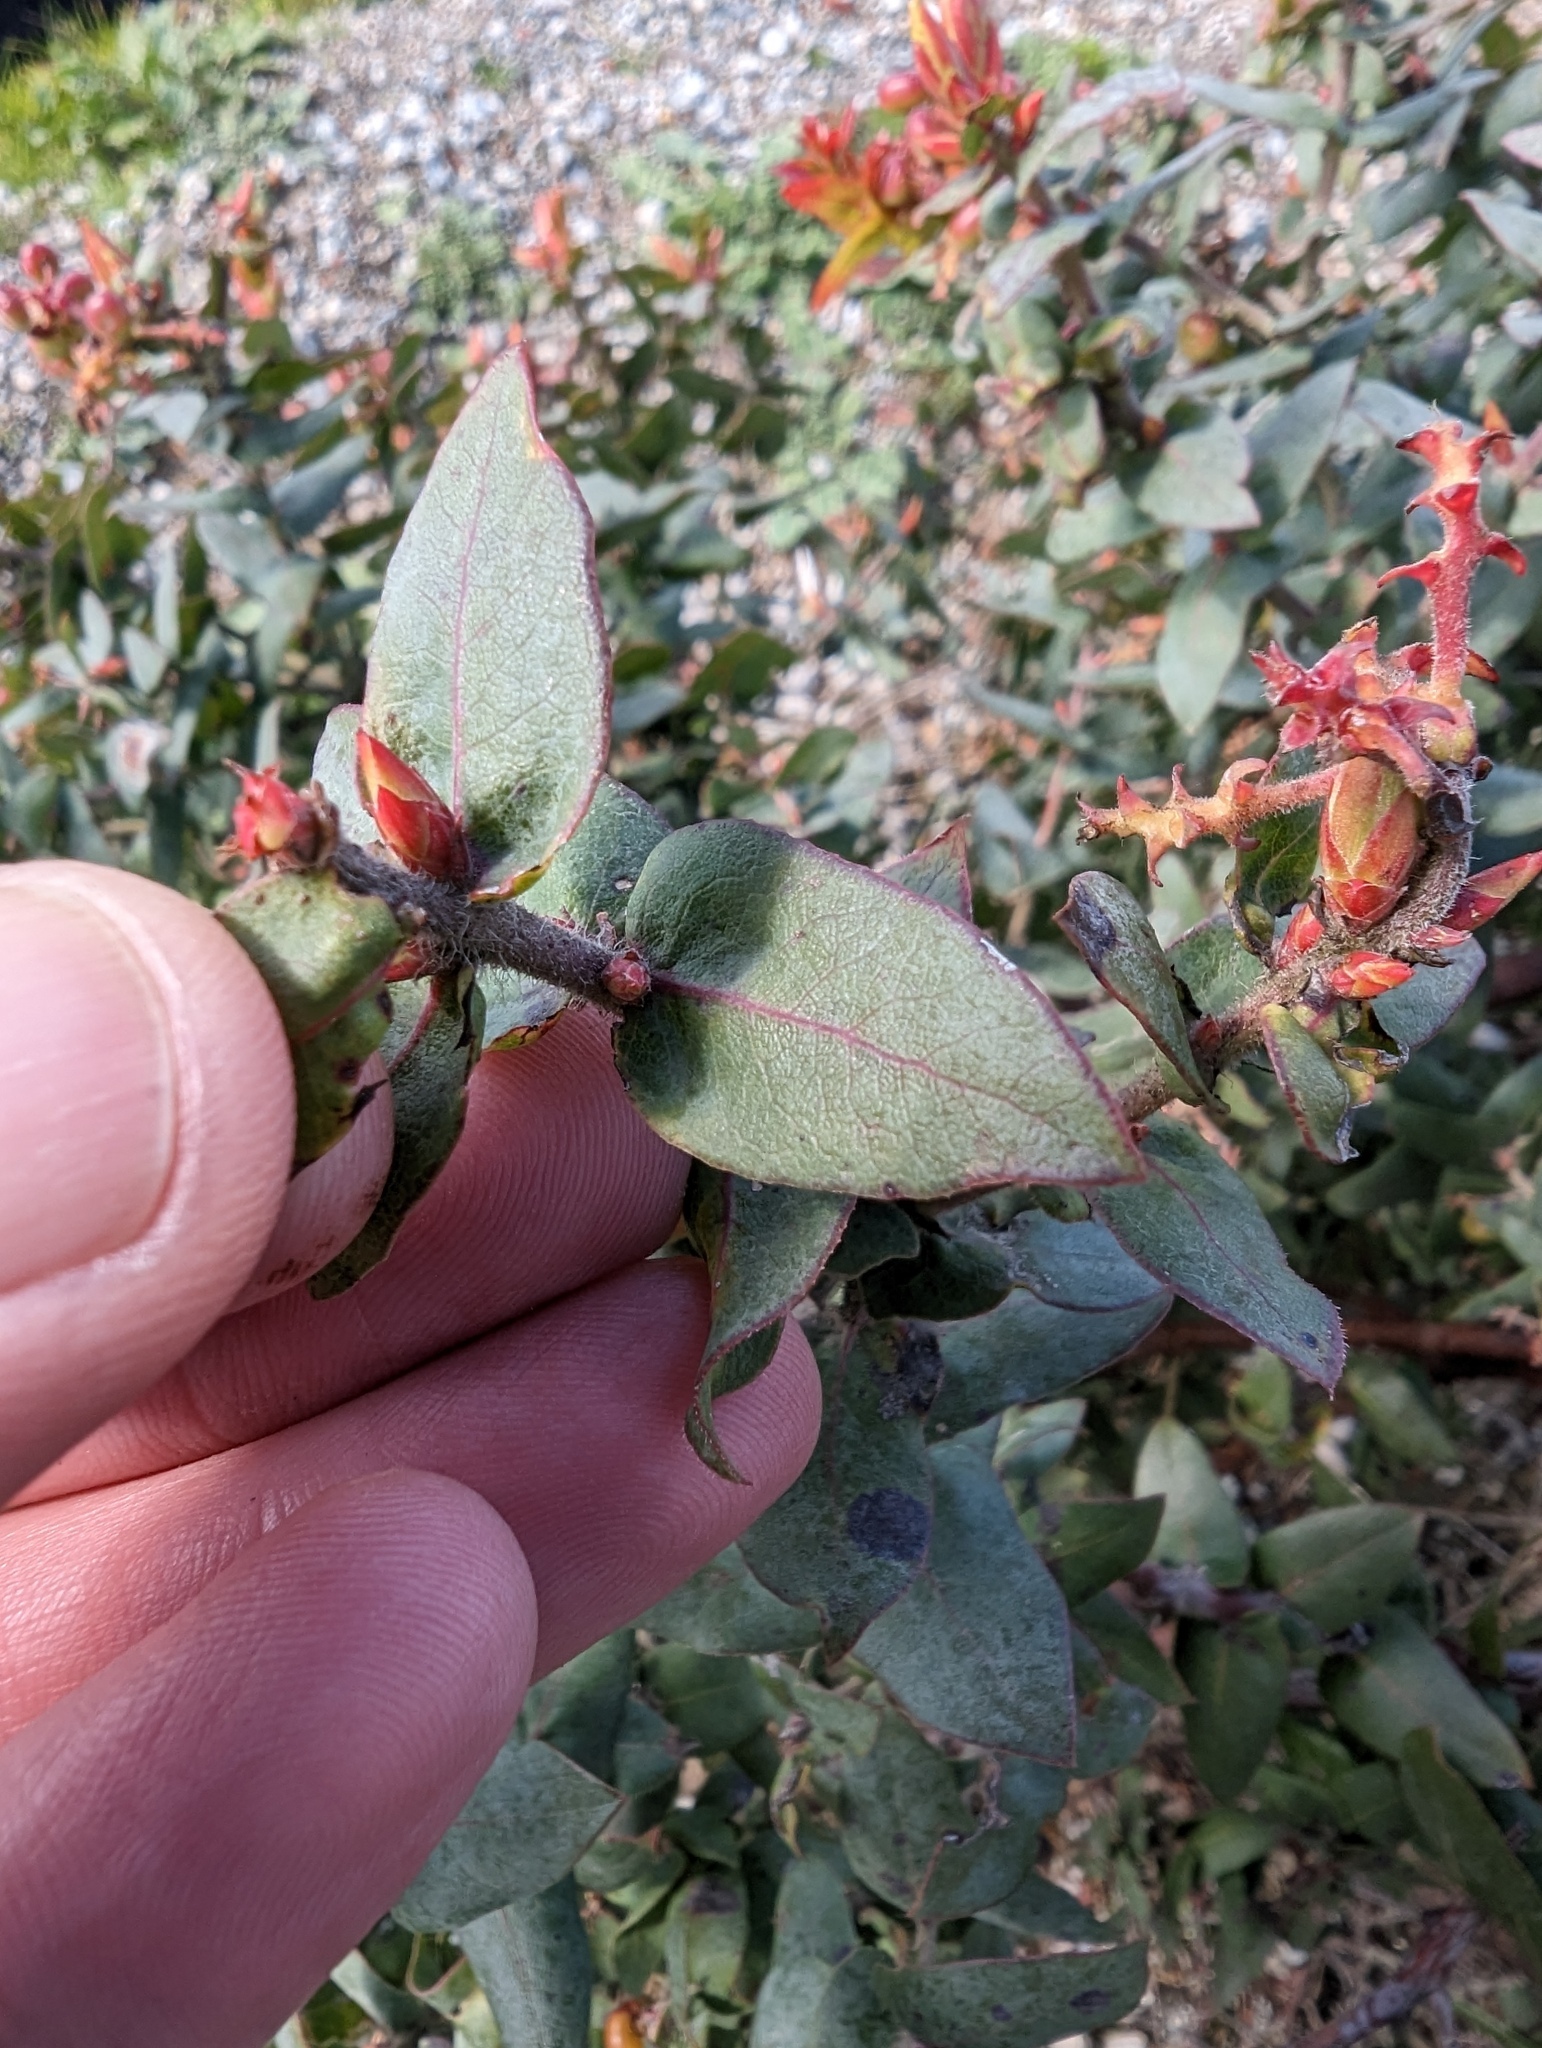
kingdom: Plantae
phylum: Tracheophyta
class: Magnoliopsida
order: Ericales
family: Ericaceae
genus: Arctostaphylos
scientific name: Arctostaphylos pajaroensis
